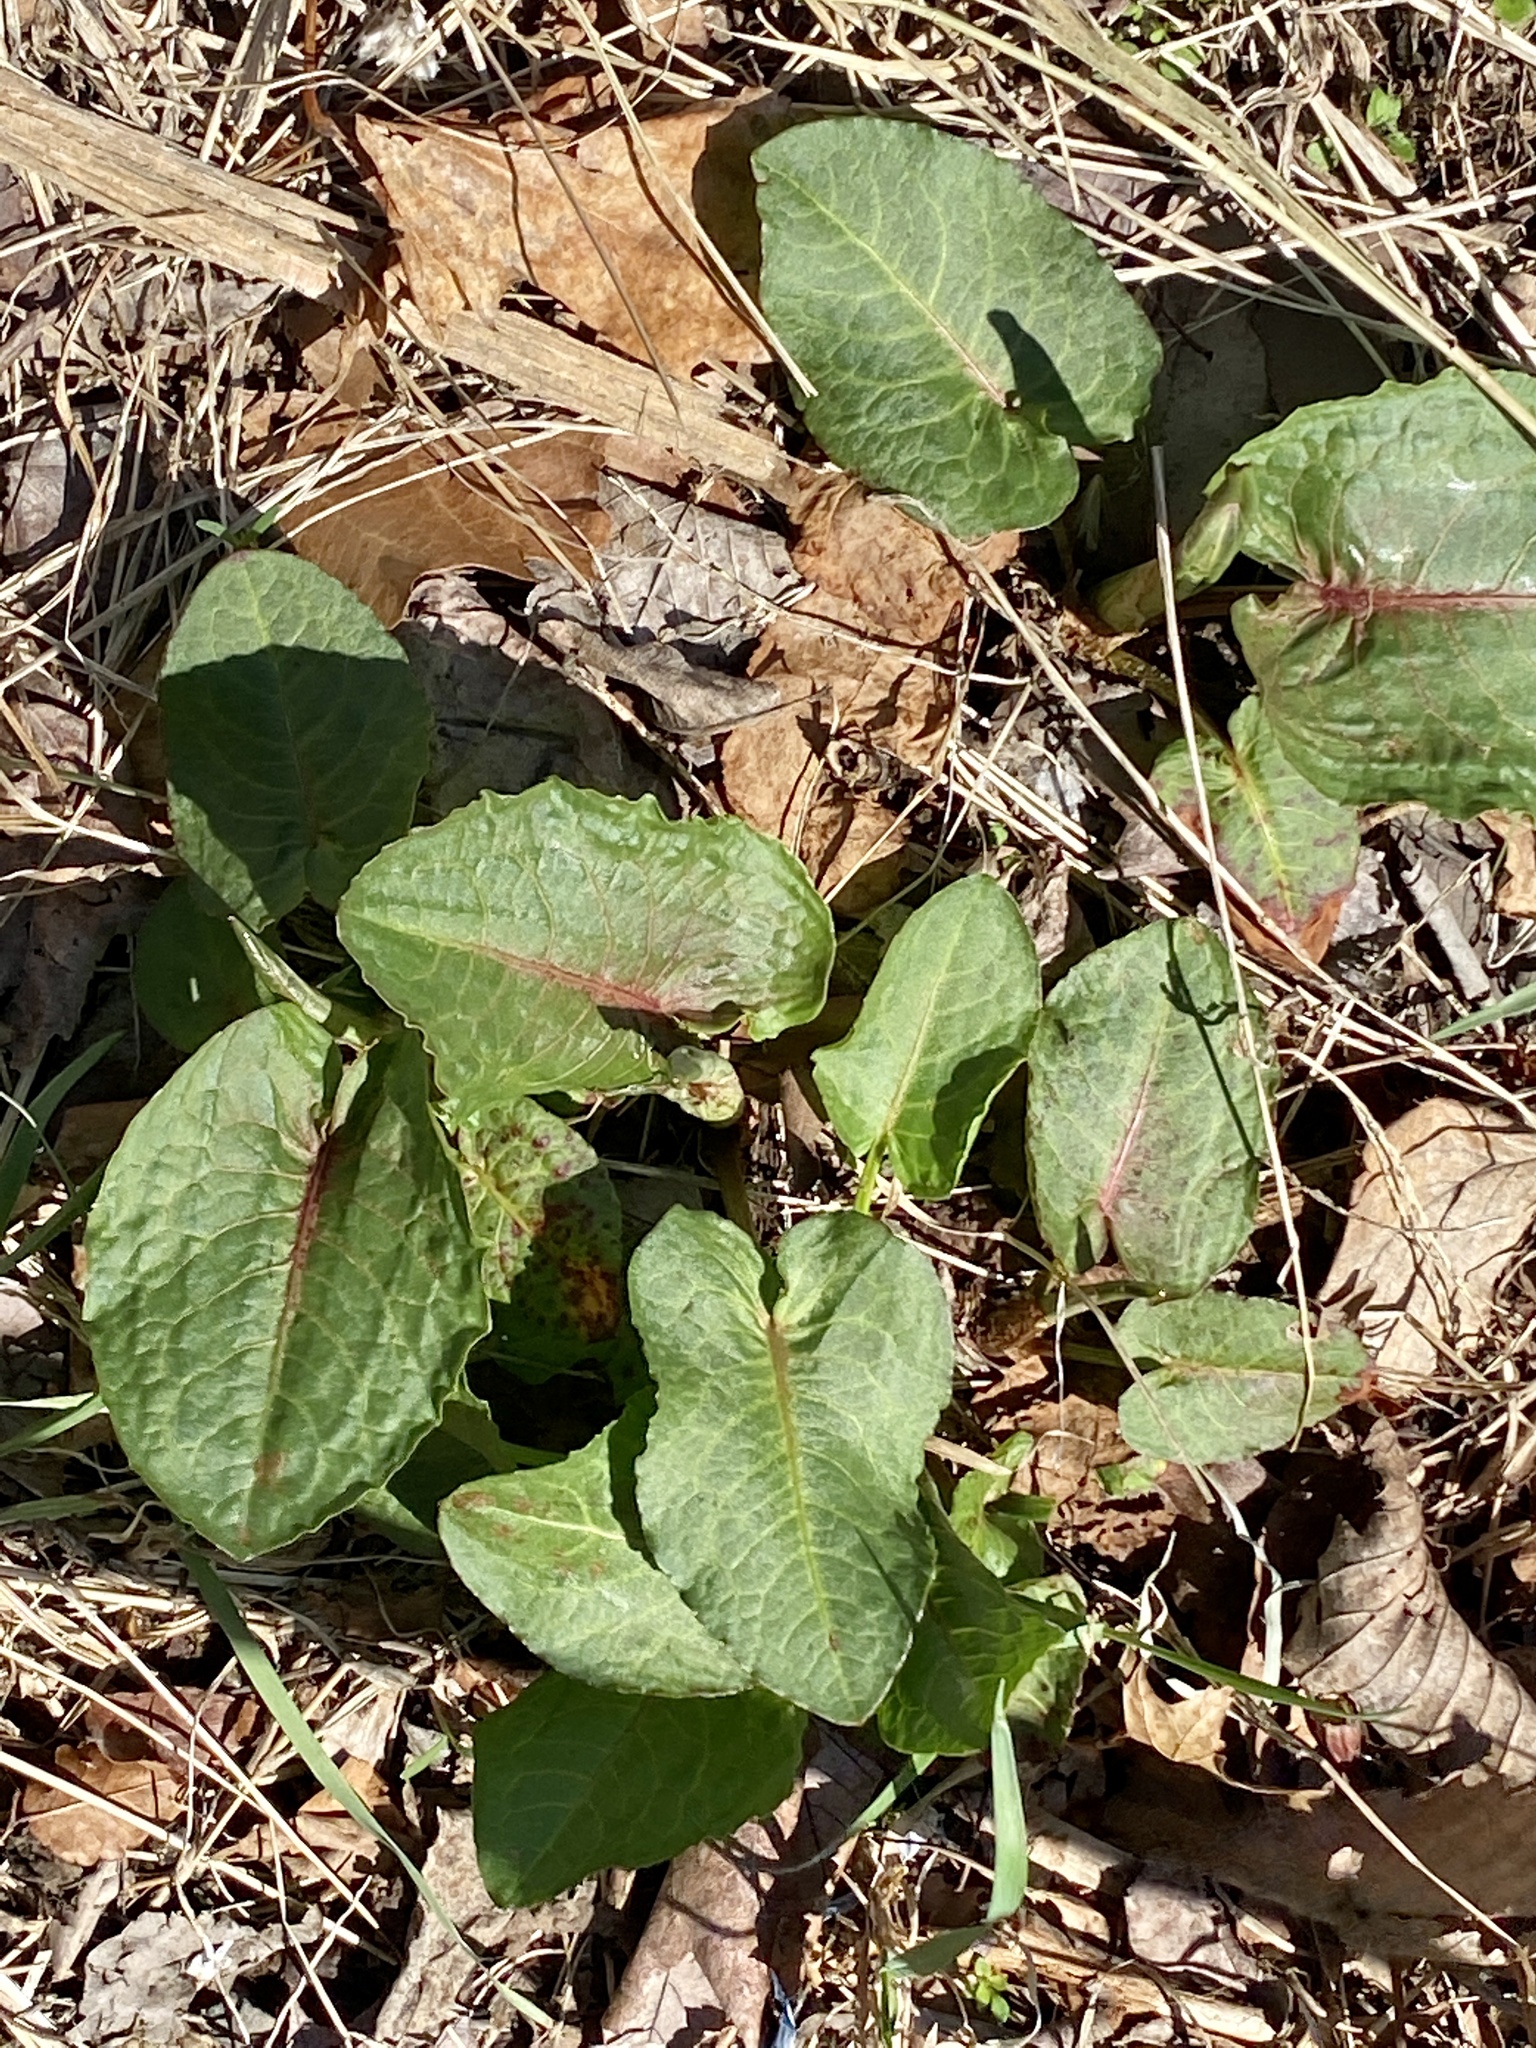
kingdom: Plantae
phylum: Tracheophyta
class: Magnoliopsida
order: Caryophyllales
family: Polygonaceae
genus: Rumex
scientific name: Rumex obtusifolius
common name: Bitter dock
